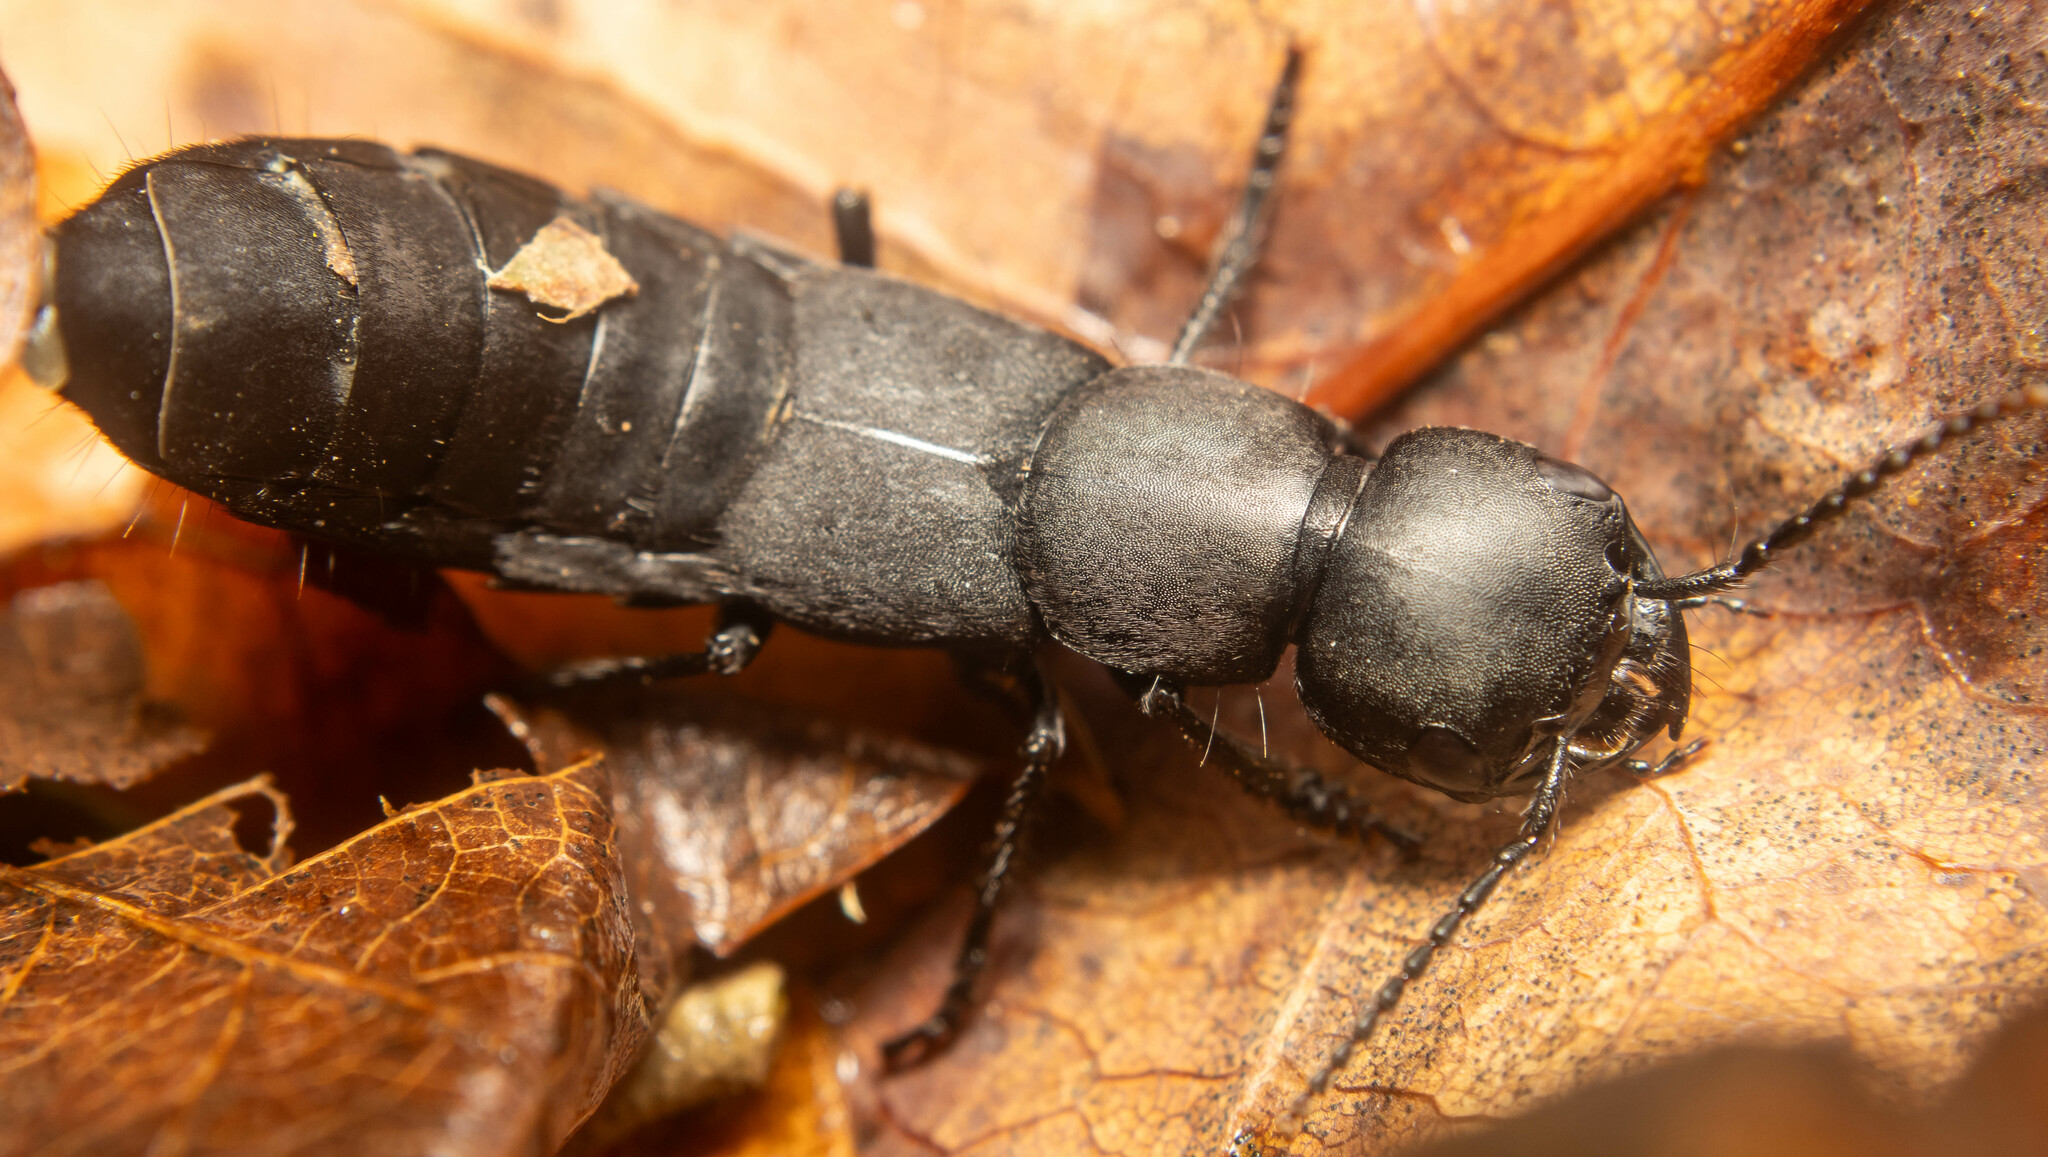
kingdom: Animalia
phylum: Arthropoda
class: Insecta
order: Coleoptera
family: Staphylinidae
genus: Ocypus
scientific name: Ocypus olens
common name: Devil's coach-horse
